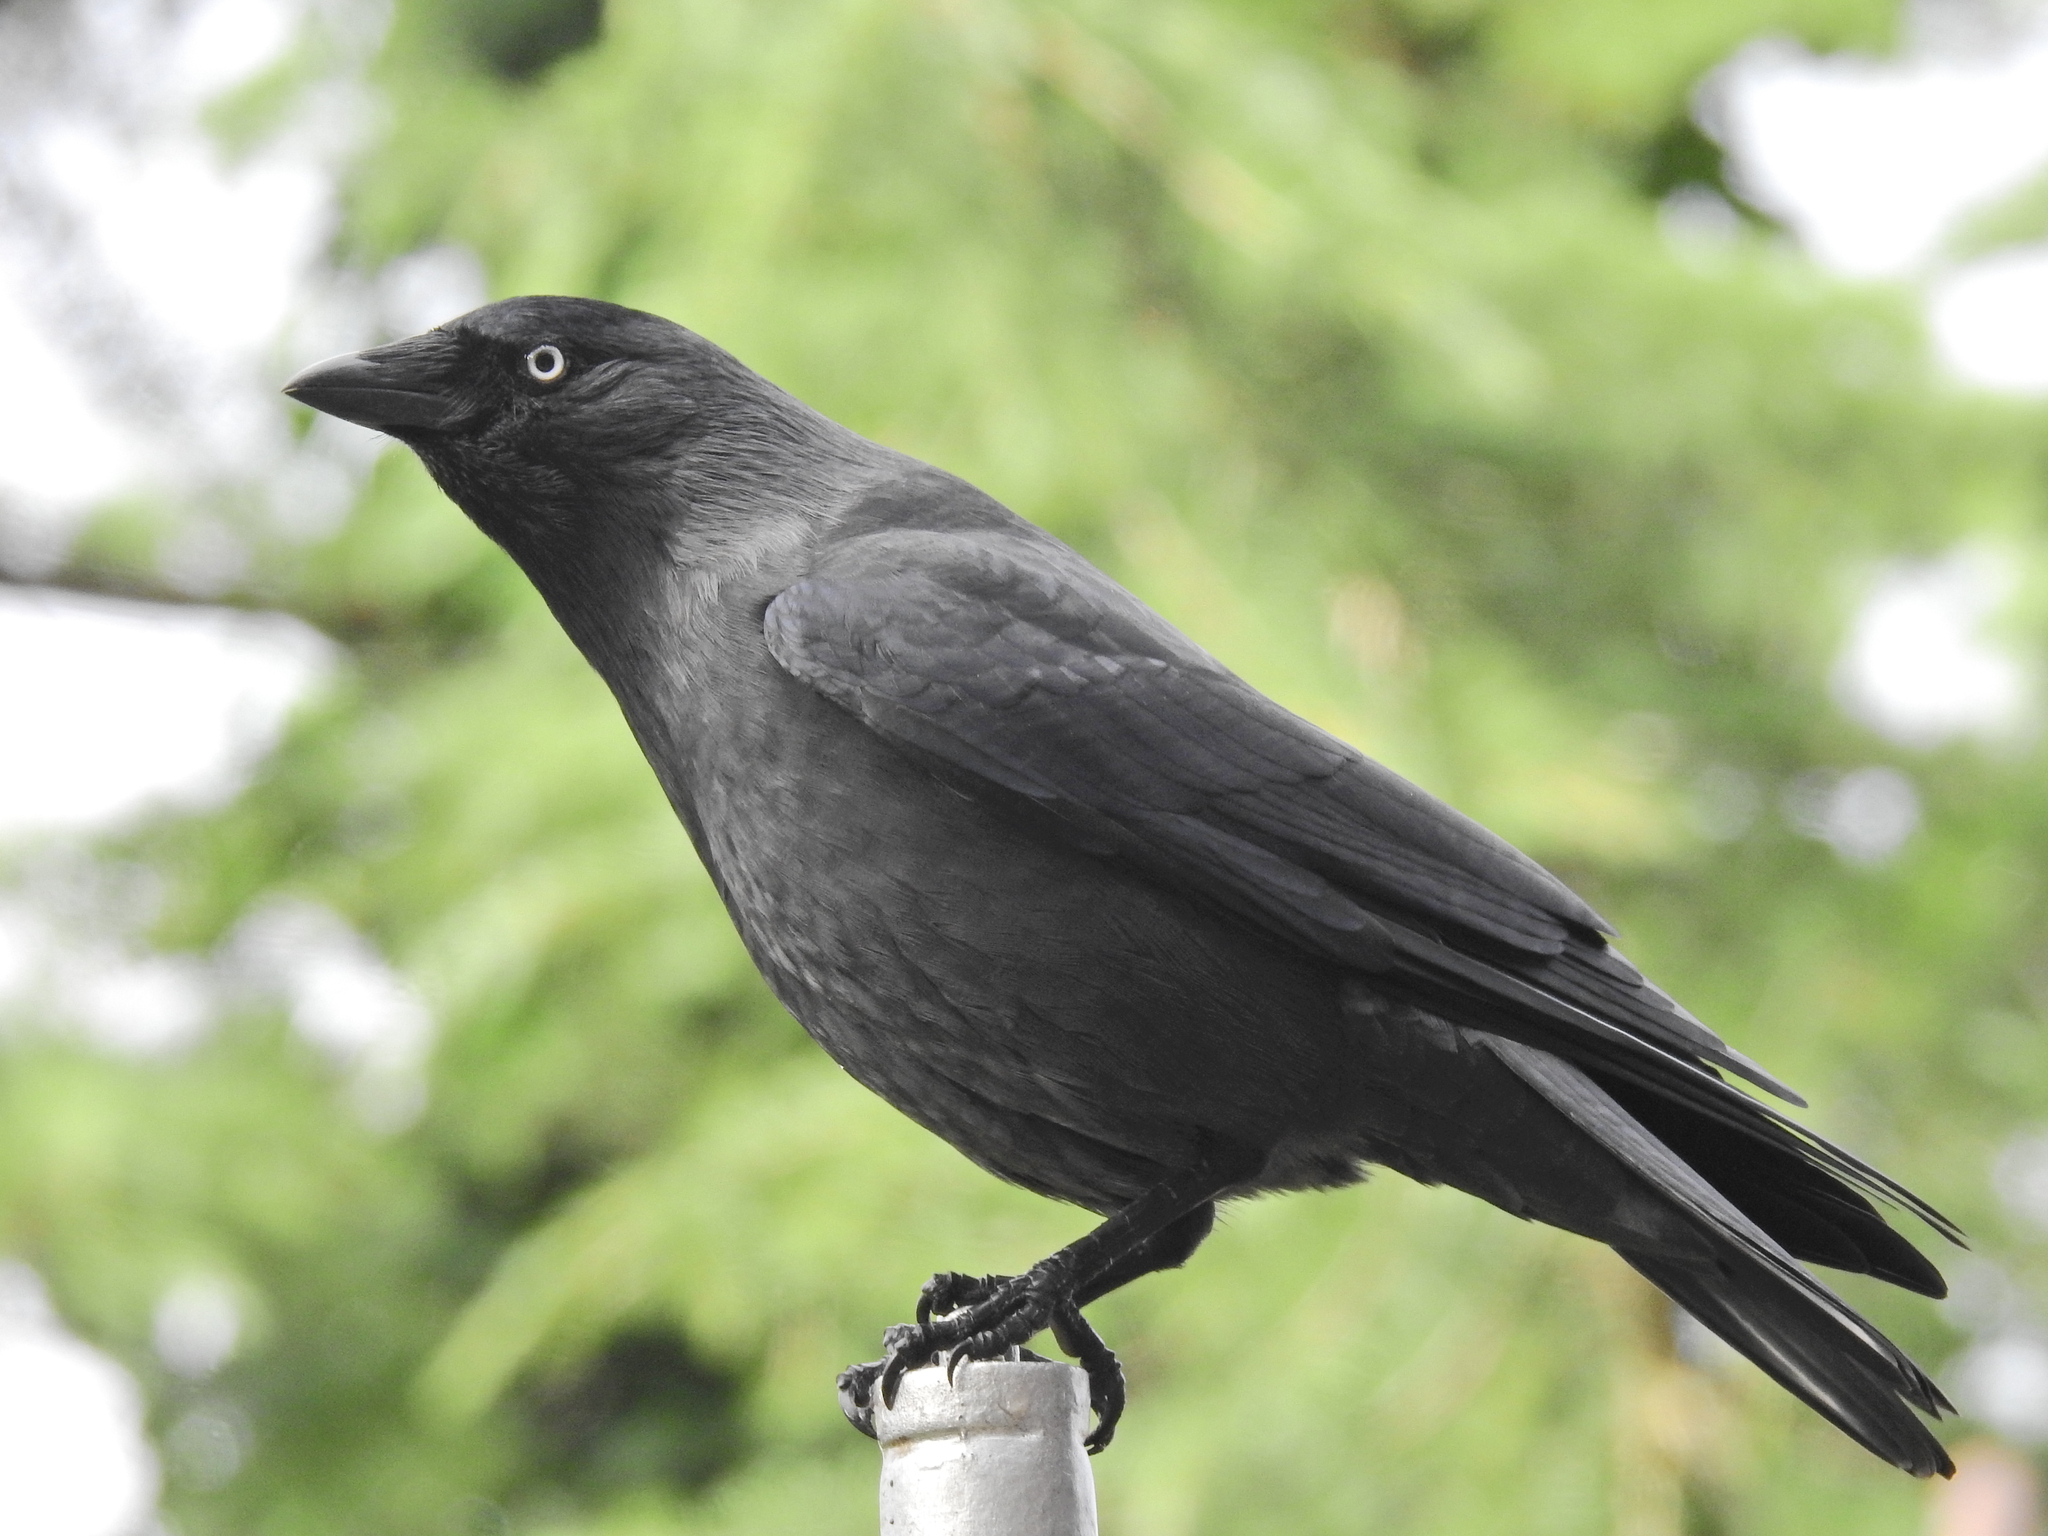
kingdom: Animalia
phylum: Chordata
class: Aves
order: Passeriformes
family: Corvidae
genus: Coloeus
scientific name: Coloeus monedula
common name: Western jackdaw
